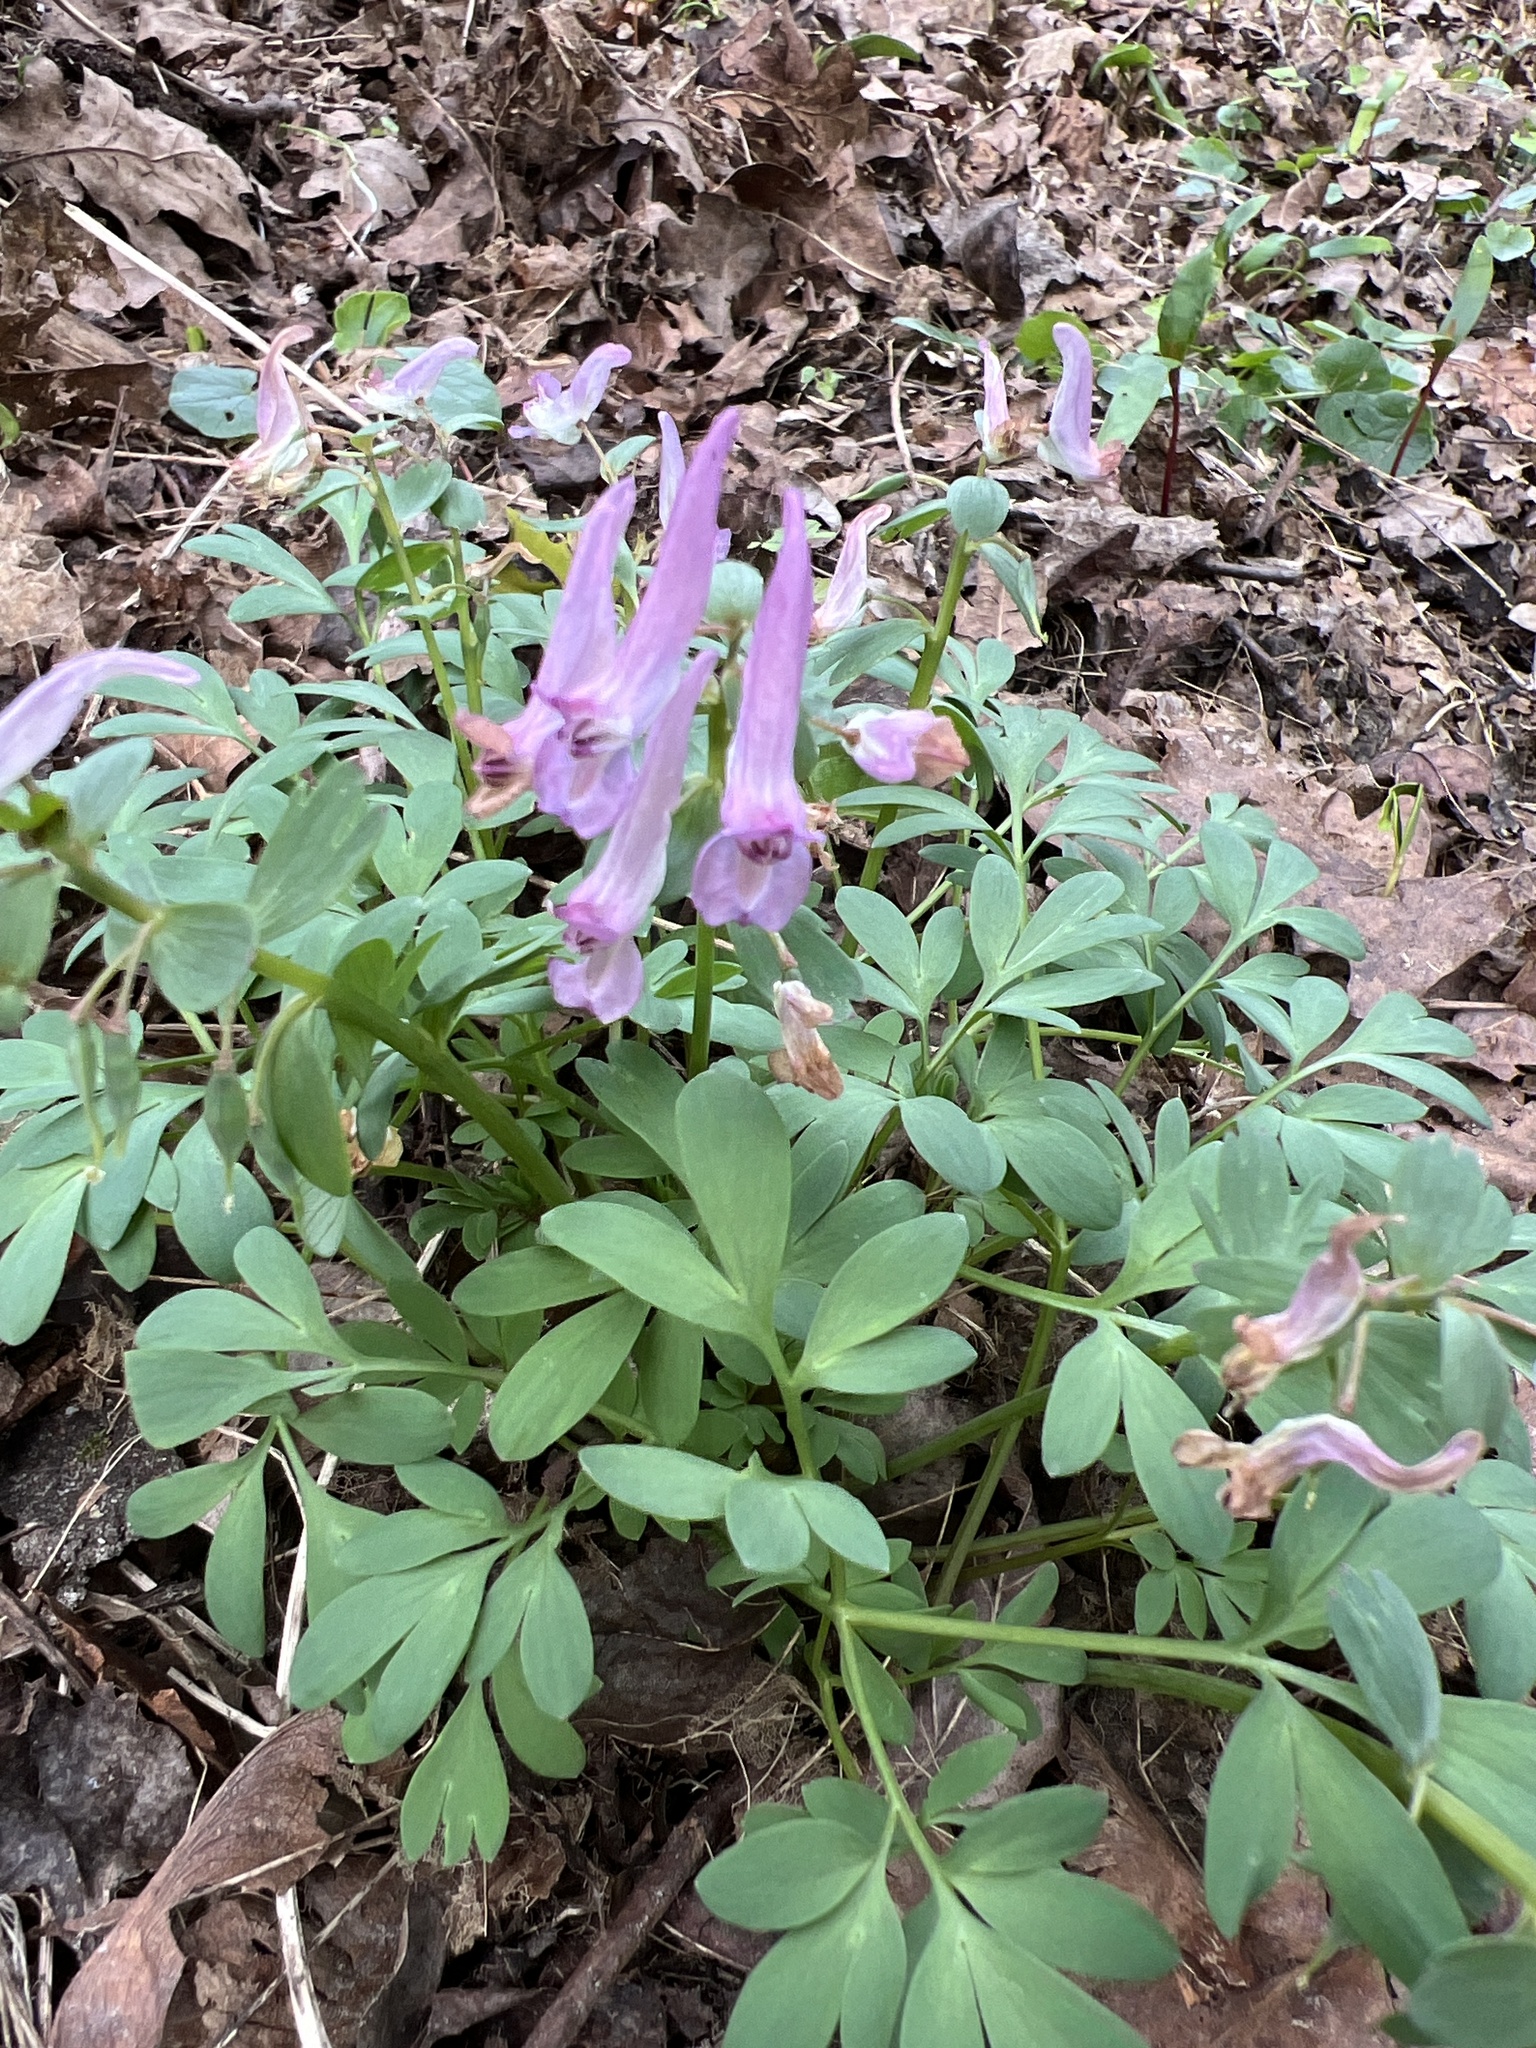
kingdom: Plantae
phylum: Tracheophyta
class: Magnoliopsida
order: Ranunculales
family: Papaveraceae
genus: Corydalis
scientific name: Corydalis solida
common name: Bird-in-a-bush
